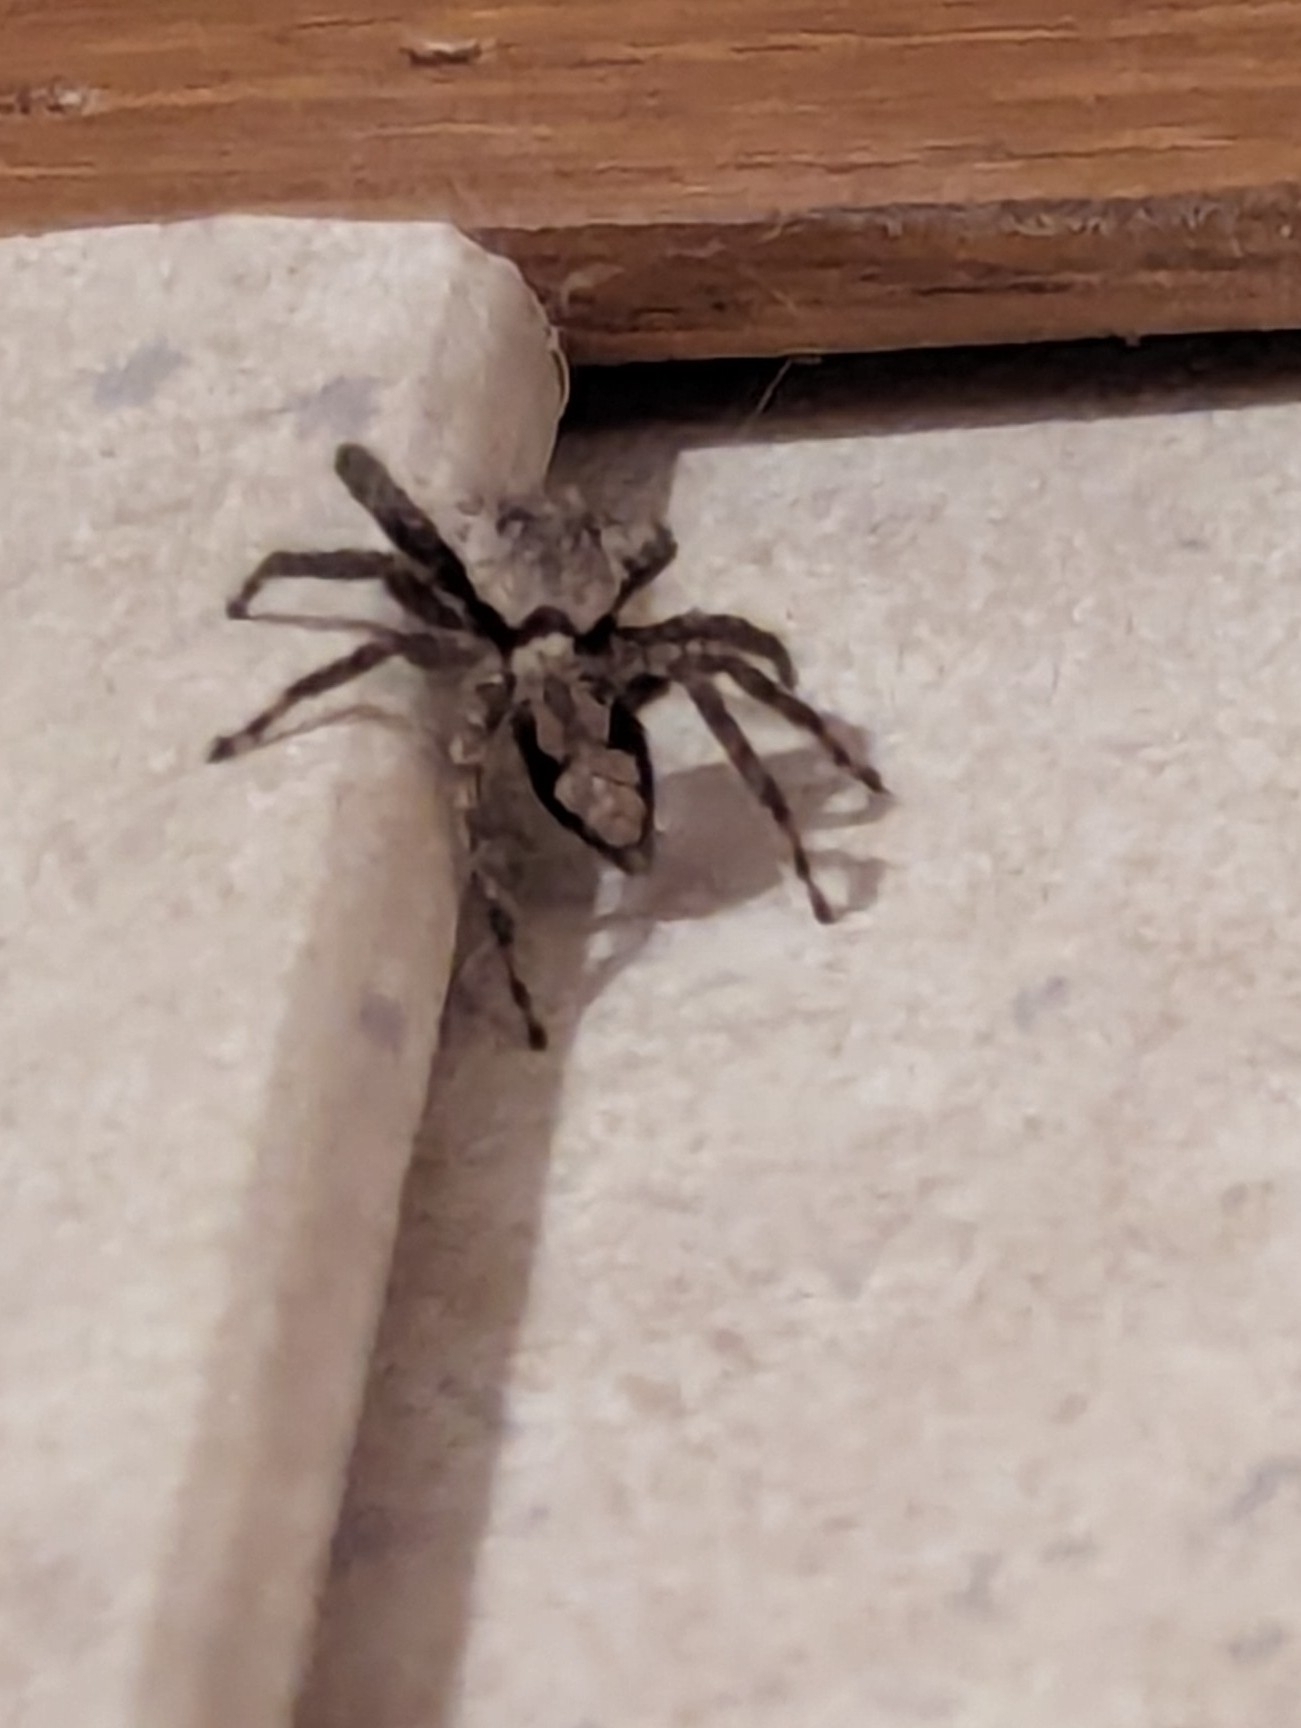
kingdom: Animalia
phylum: Arthropoda
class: Arachnida
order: Araneae
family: Salticidae
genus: Platycryptus
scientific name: Platycryptus undatus
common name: Tan jumping spider
